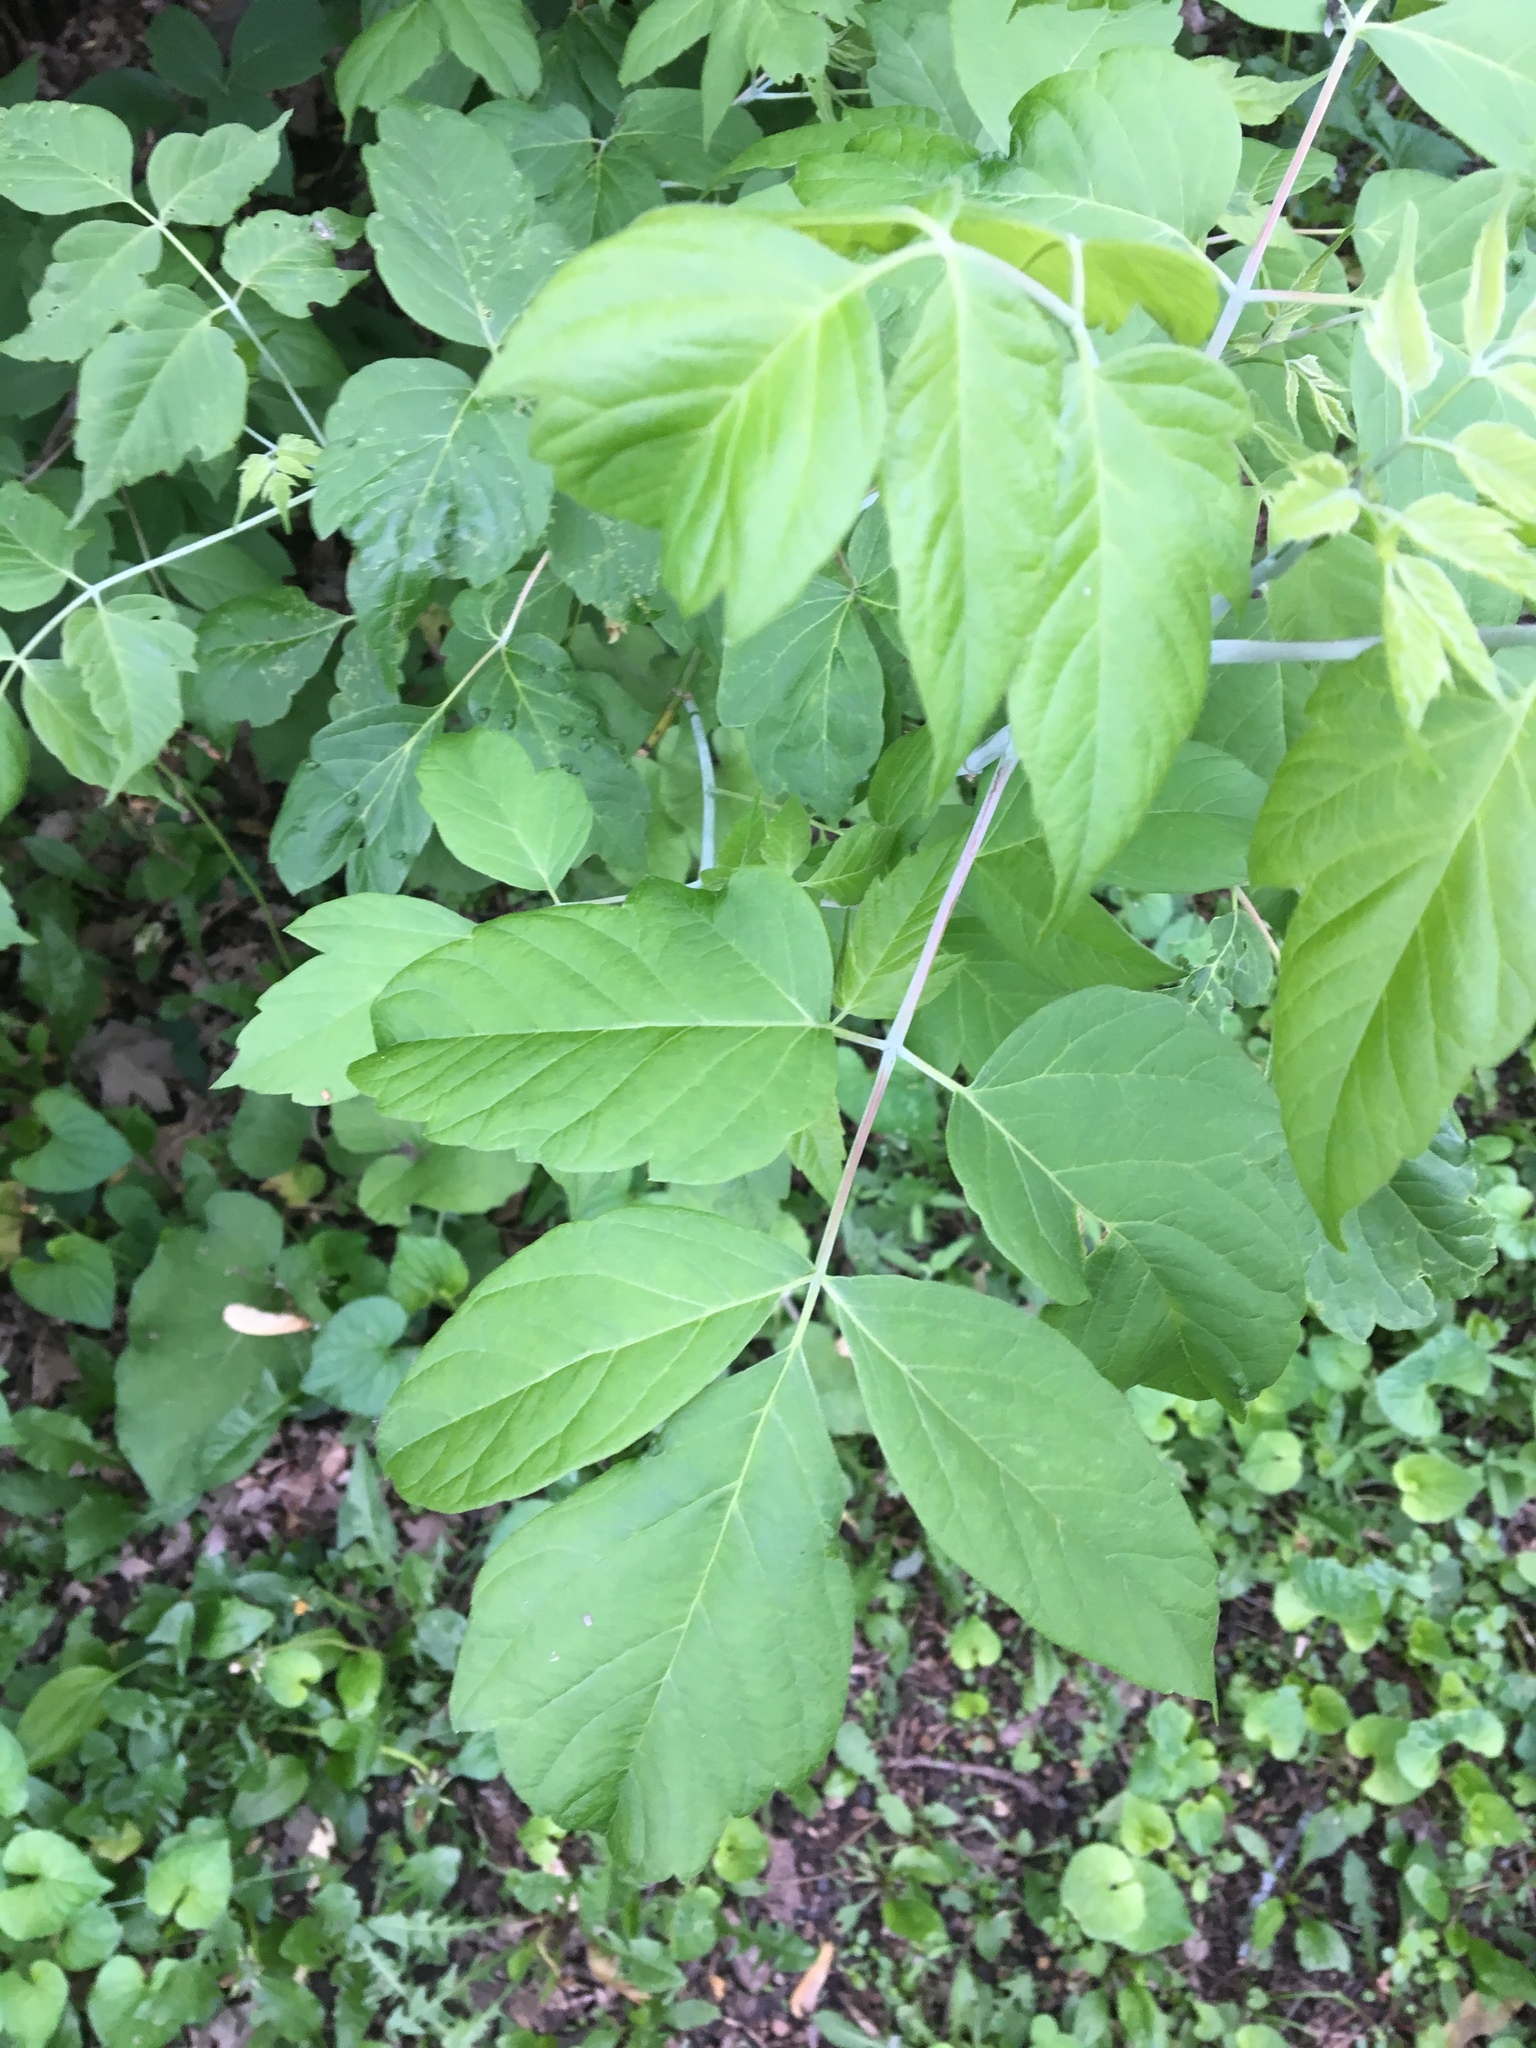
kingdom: Plantae
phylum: Tracheophyta
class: Magnoliopsida
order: Sapindales
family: Sapindaceae
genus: Acer
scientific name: Acer negundo
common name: Ashleaf maple
